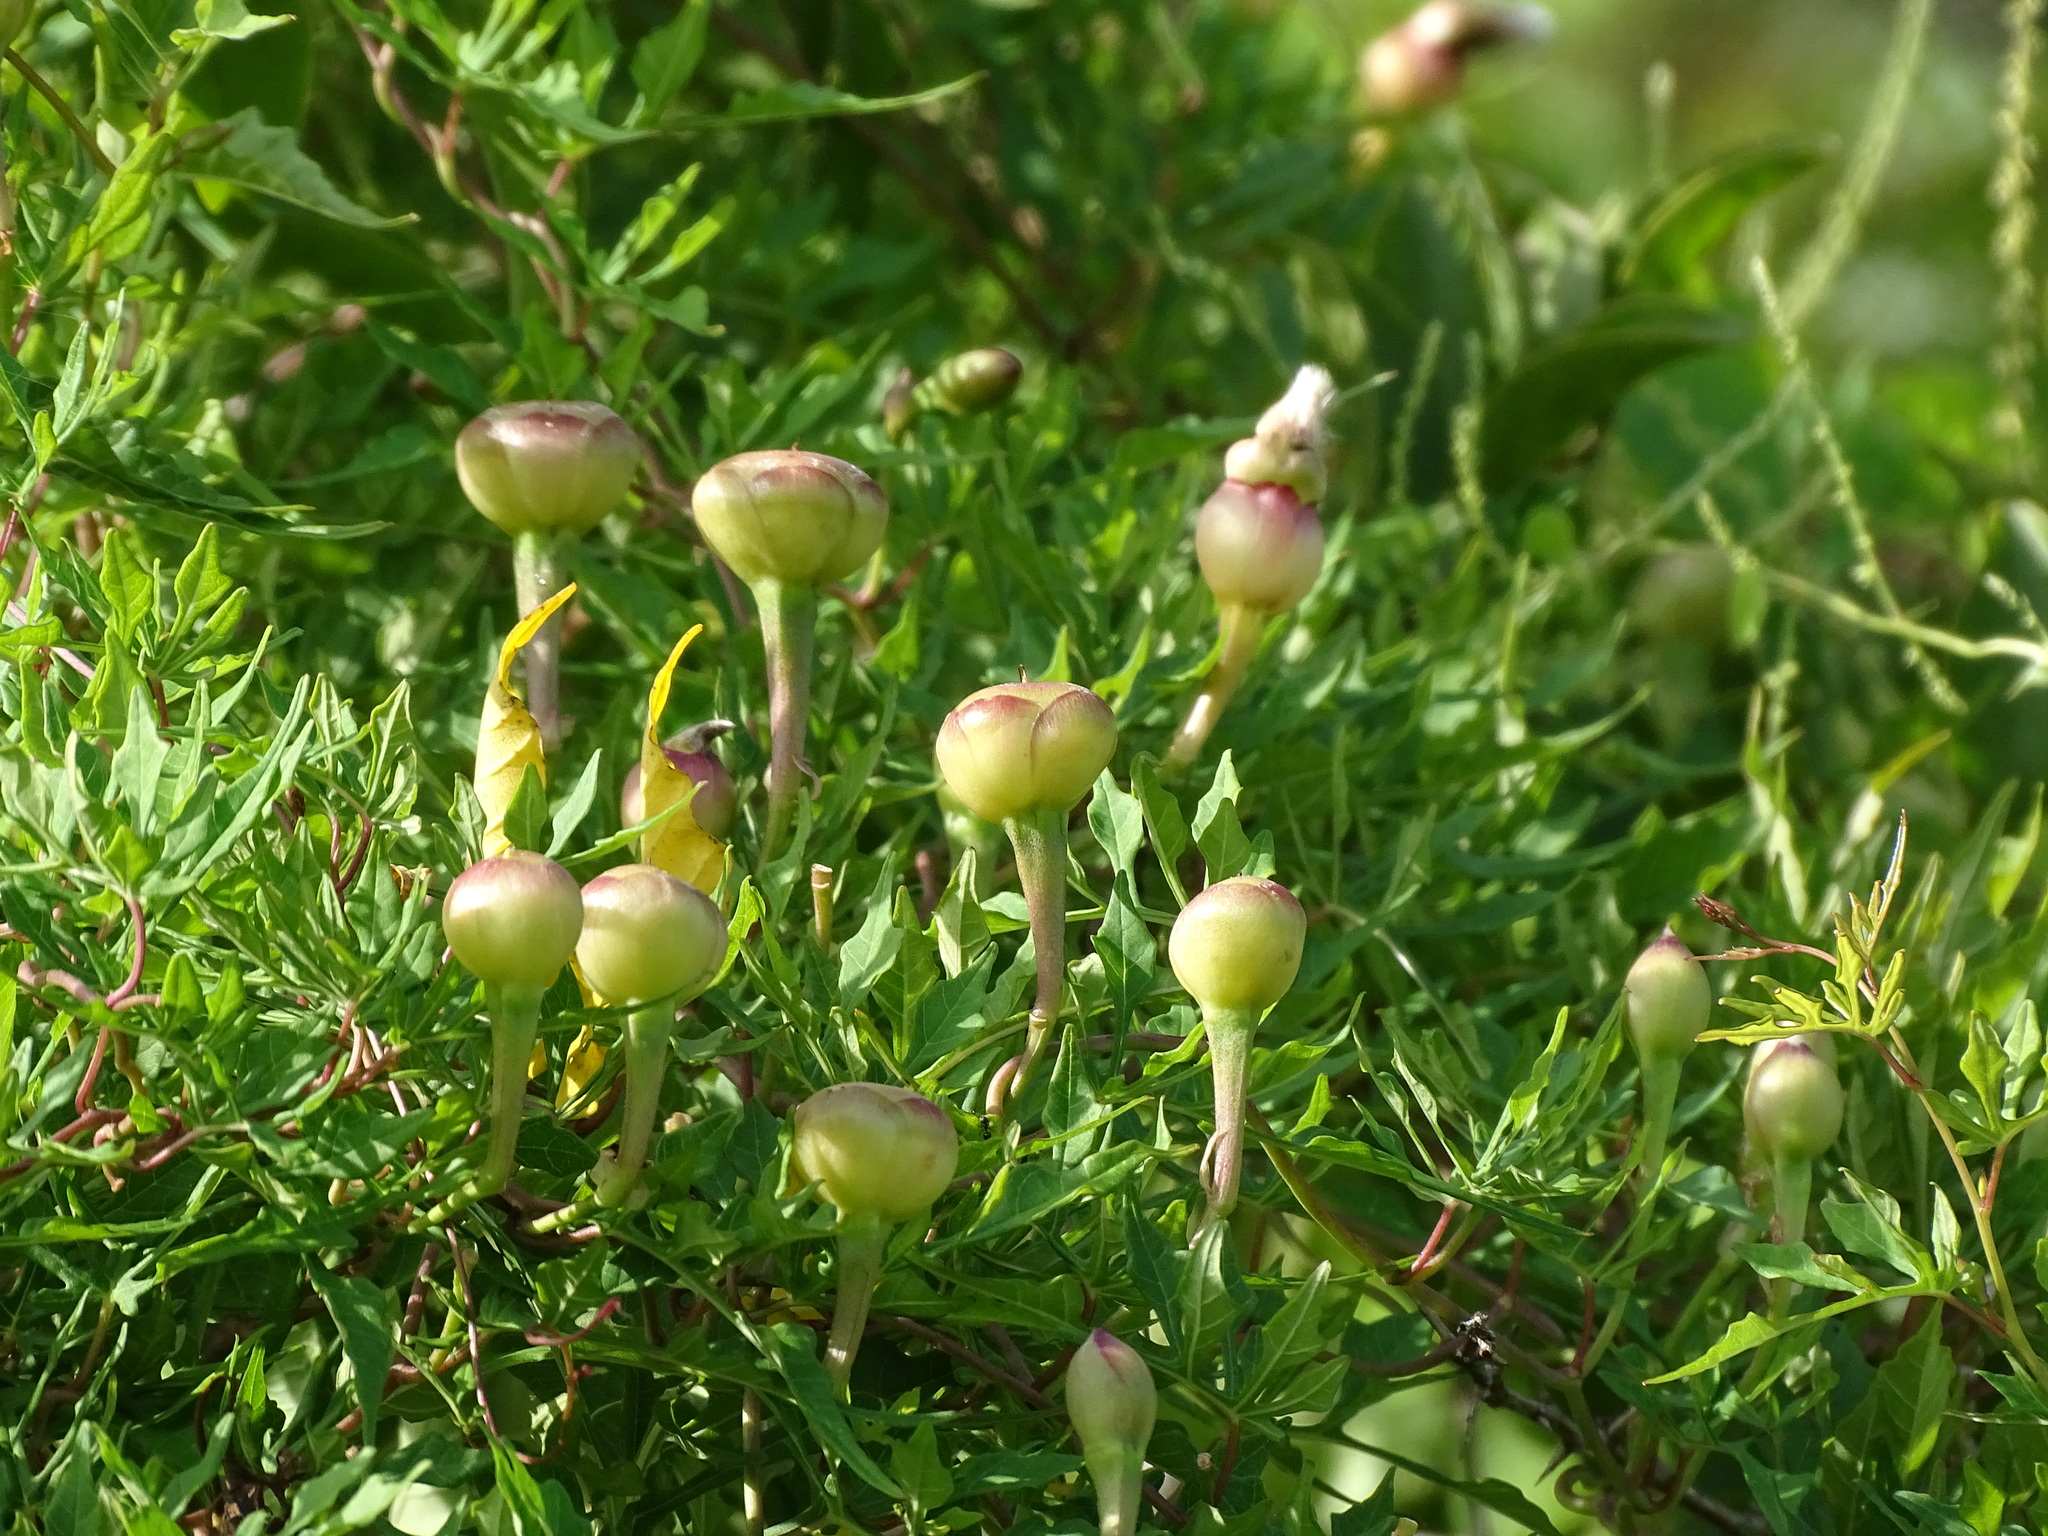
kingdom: Plantae
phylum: Tracheophyta
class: Magnoliopsida
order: Solanales
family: Convolvulaceae
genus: Operculina
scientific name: Operculina pinnatifida
